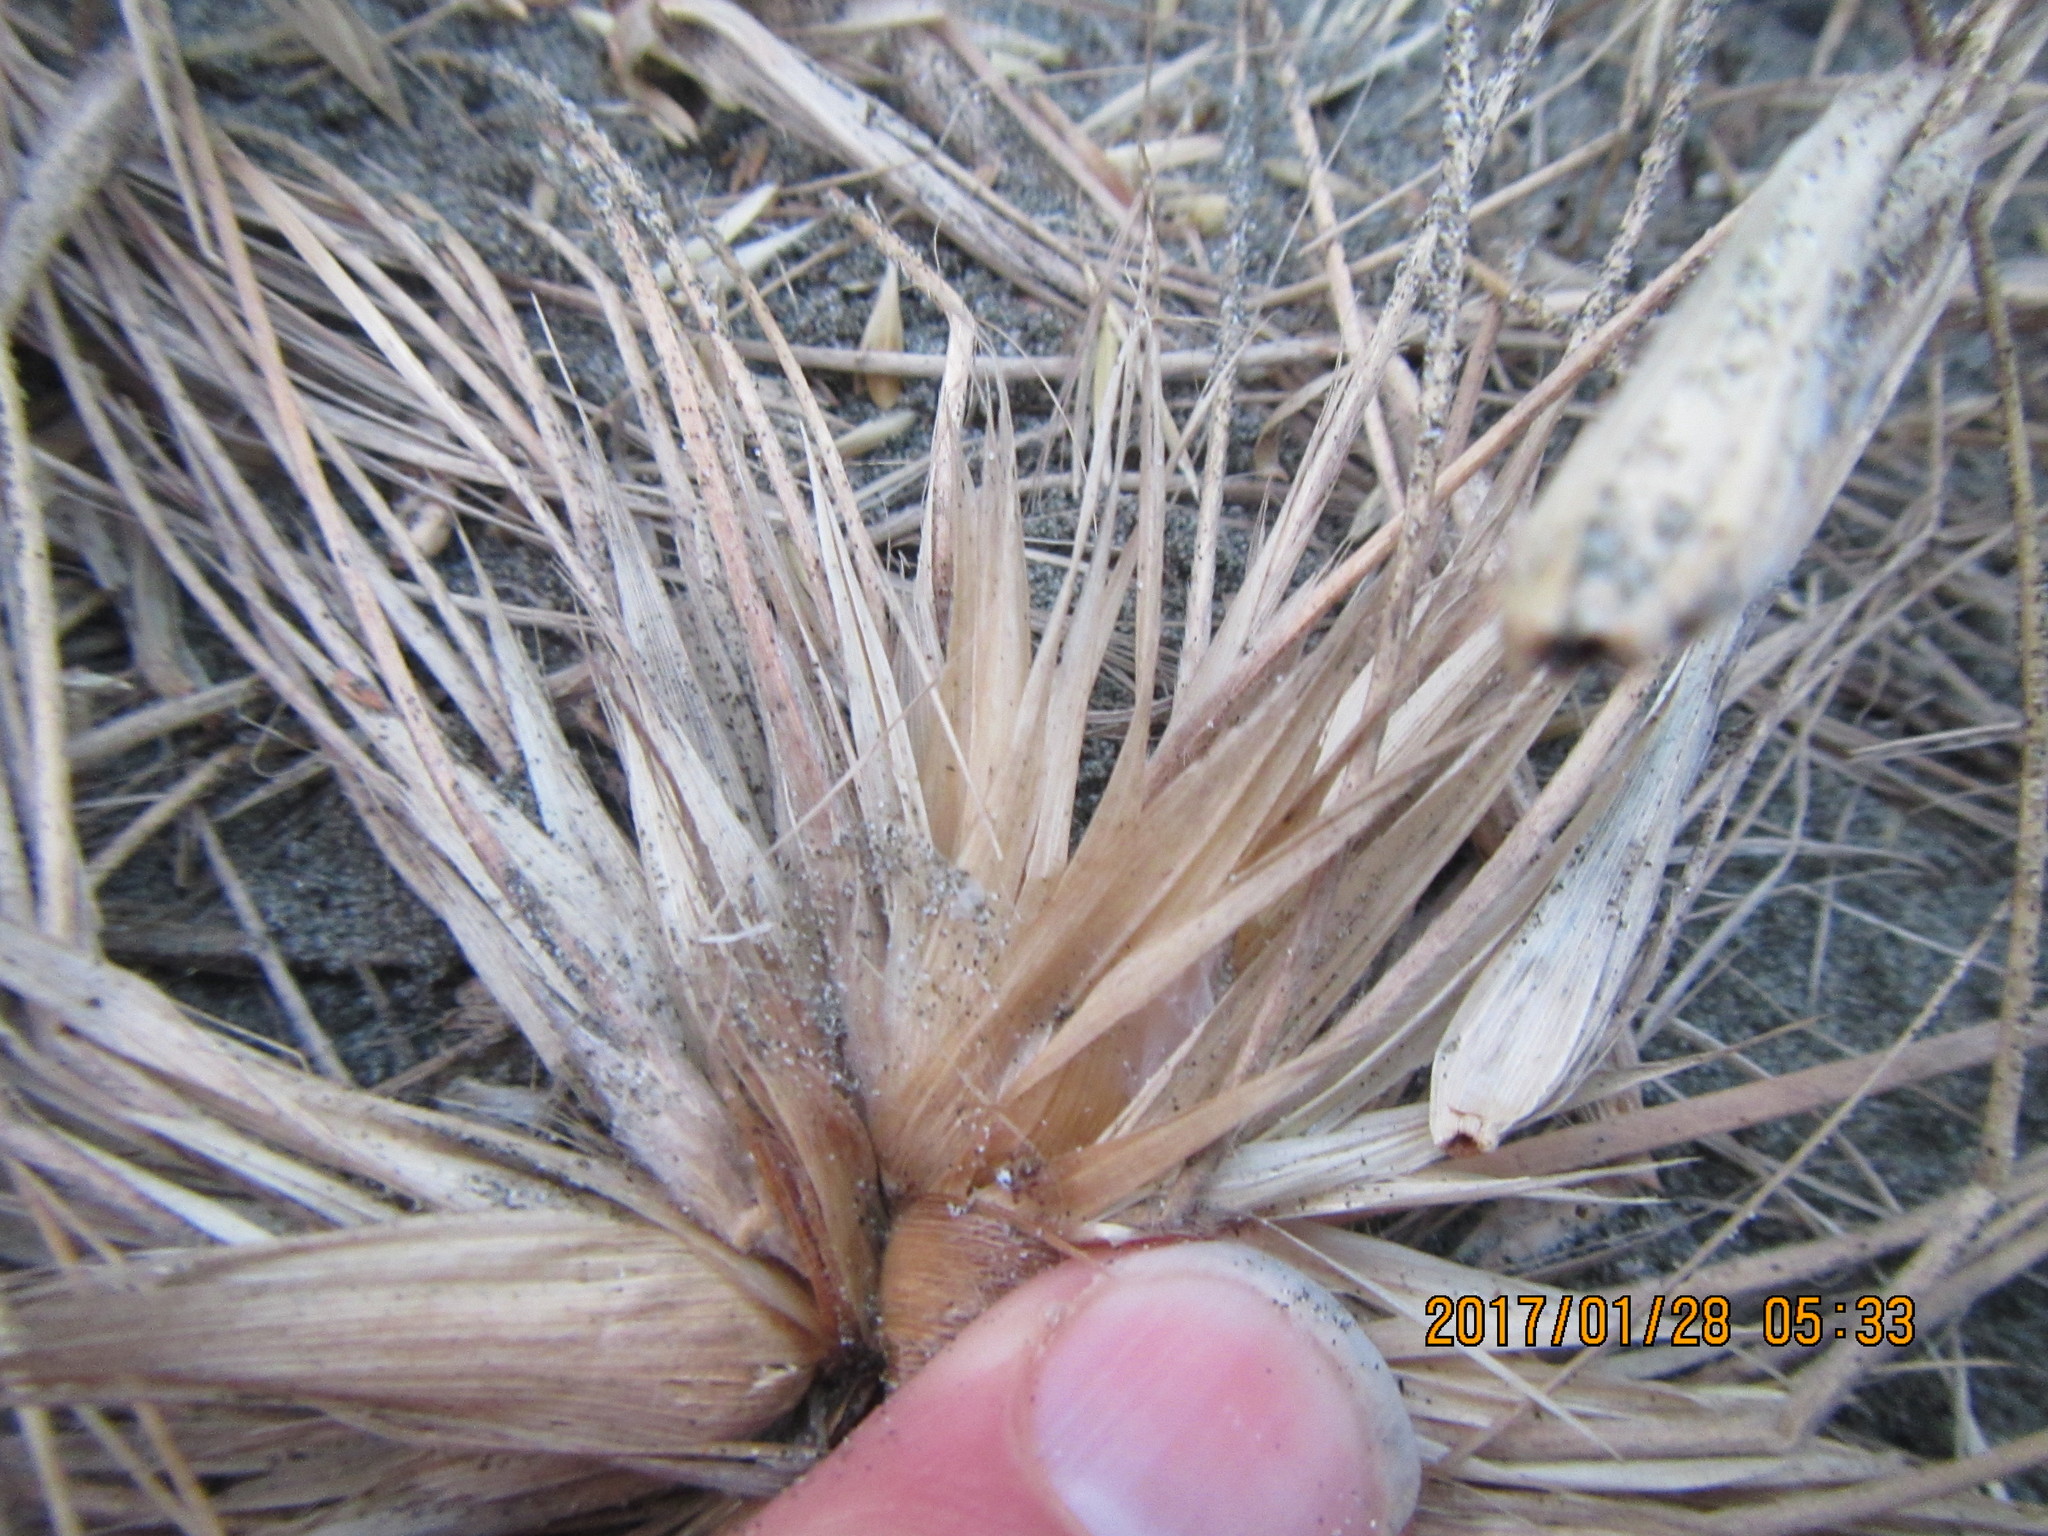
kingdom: Animalia
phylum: Arthropoda
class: Arachnida
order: Araneae
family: Theridiidae
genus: Latrodectus
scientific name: Latrodectus katipo
